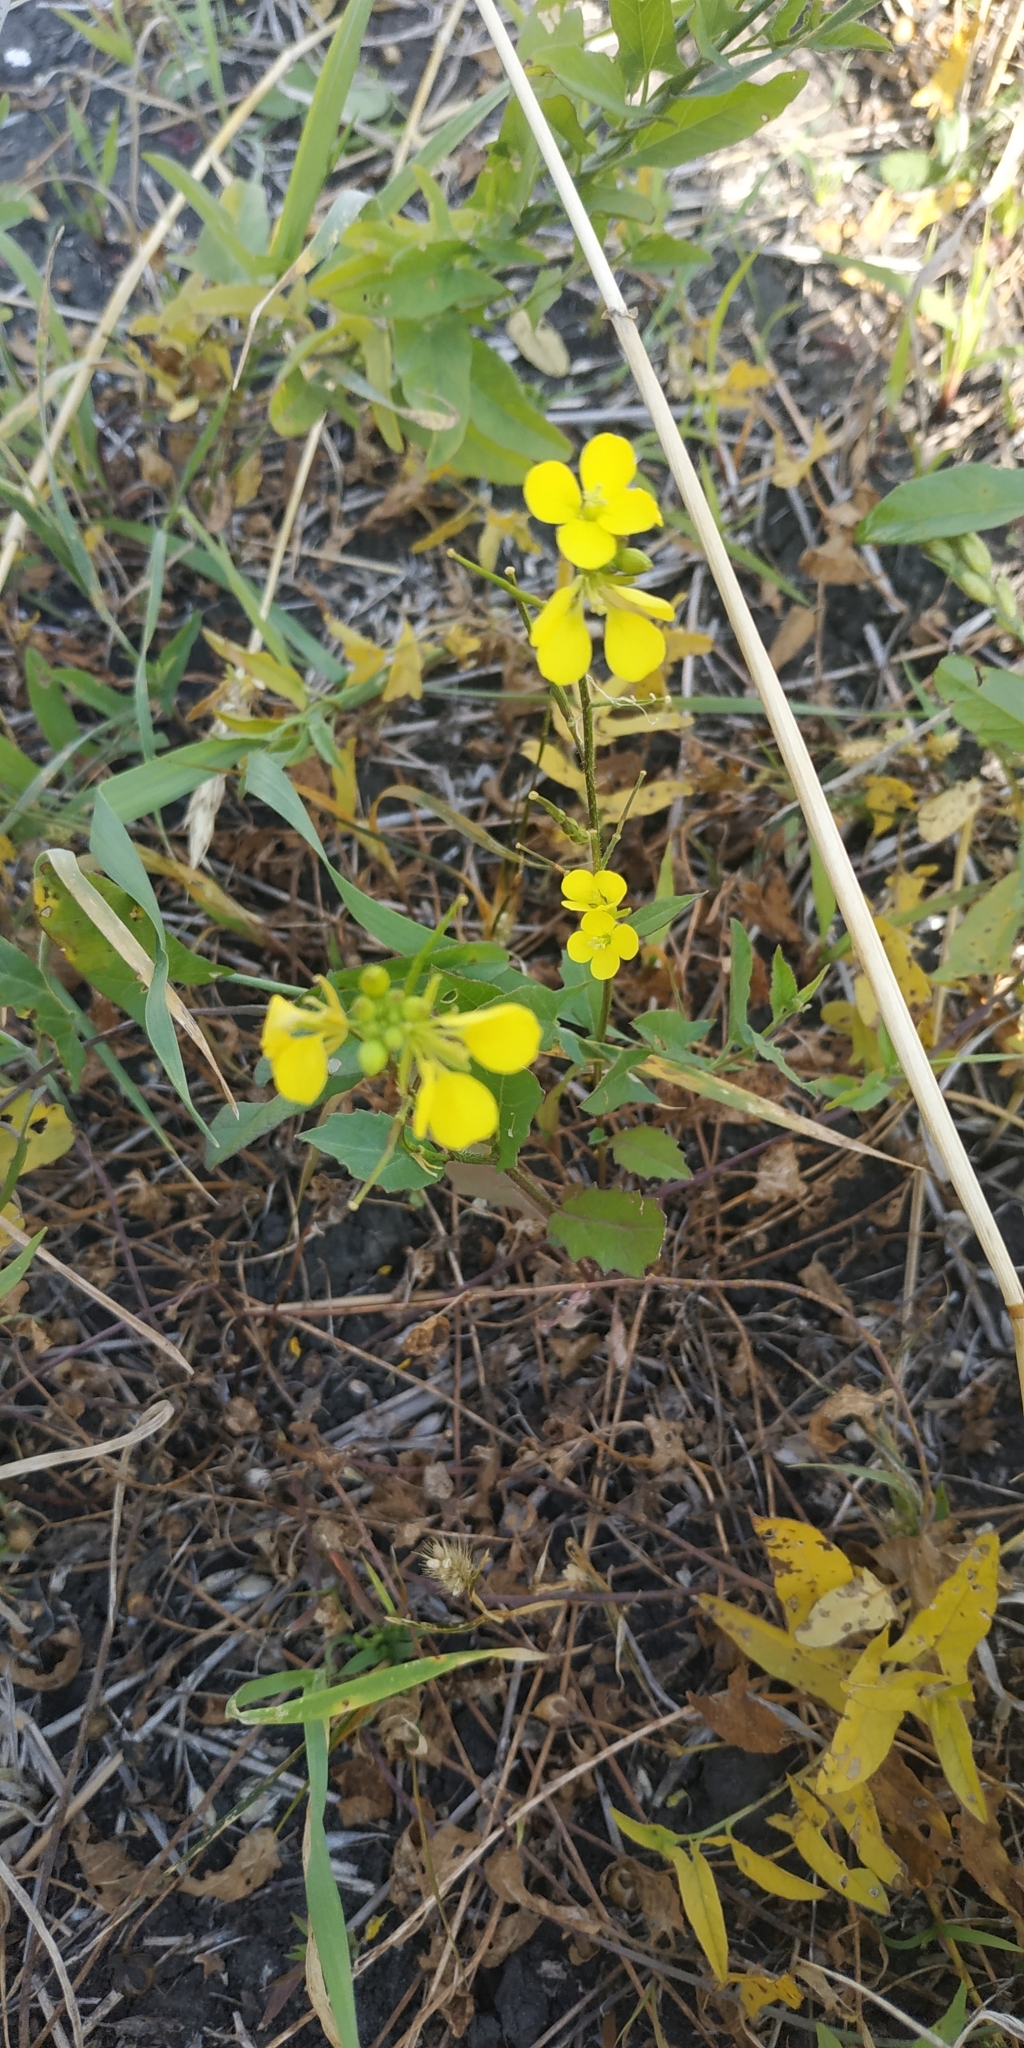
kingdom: Plantae
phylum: Tracheophyta
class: Magnoliopsida
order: Brassicales
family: Brassicaceae
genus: Sinapis
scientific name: Sinapis arvensis
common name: Charlock
